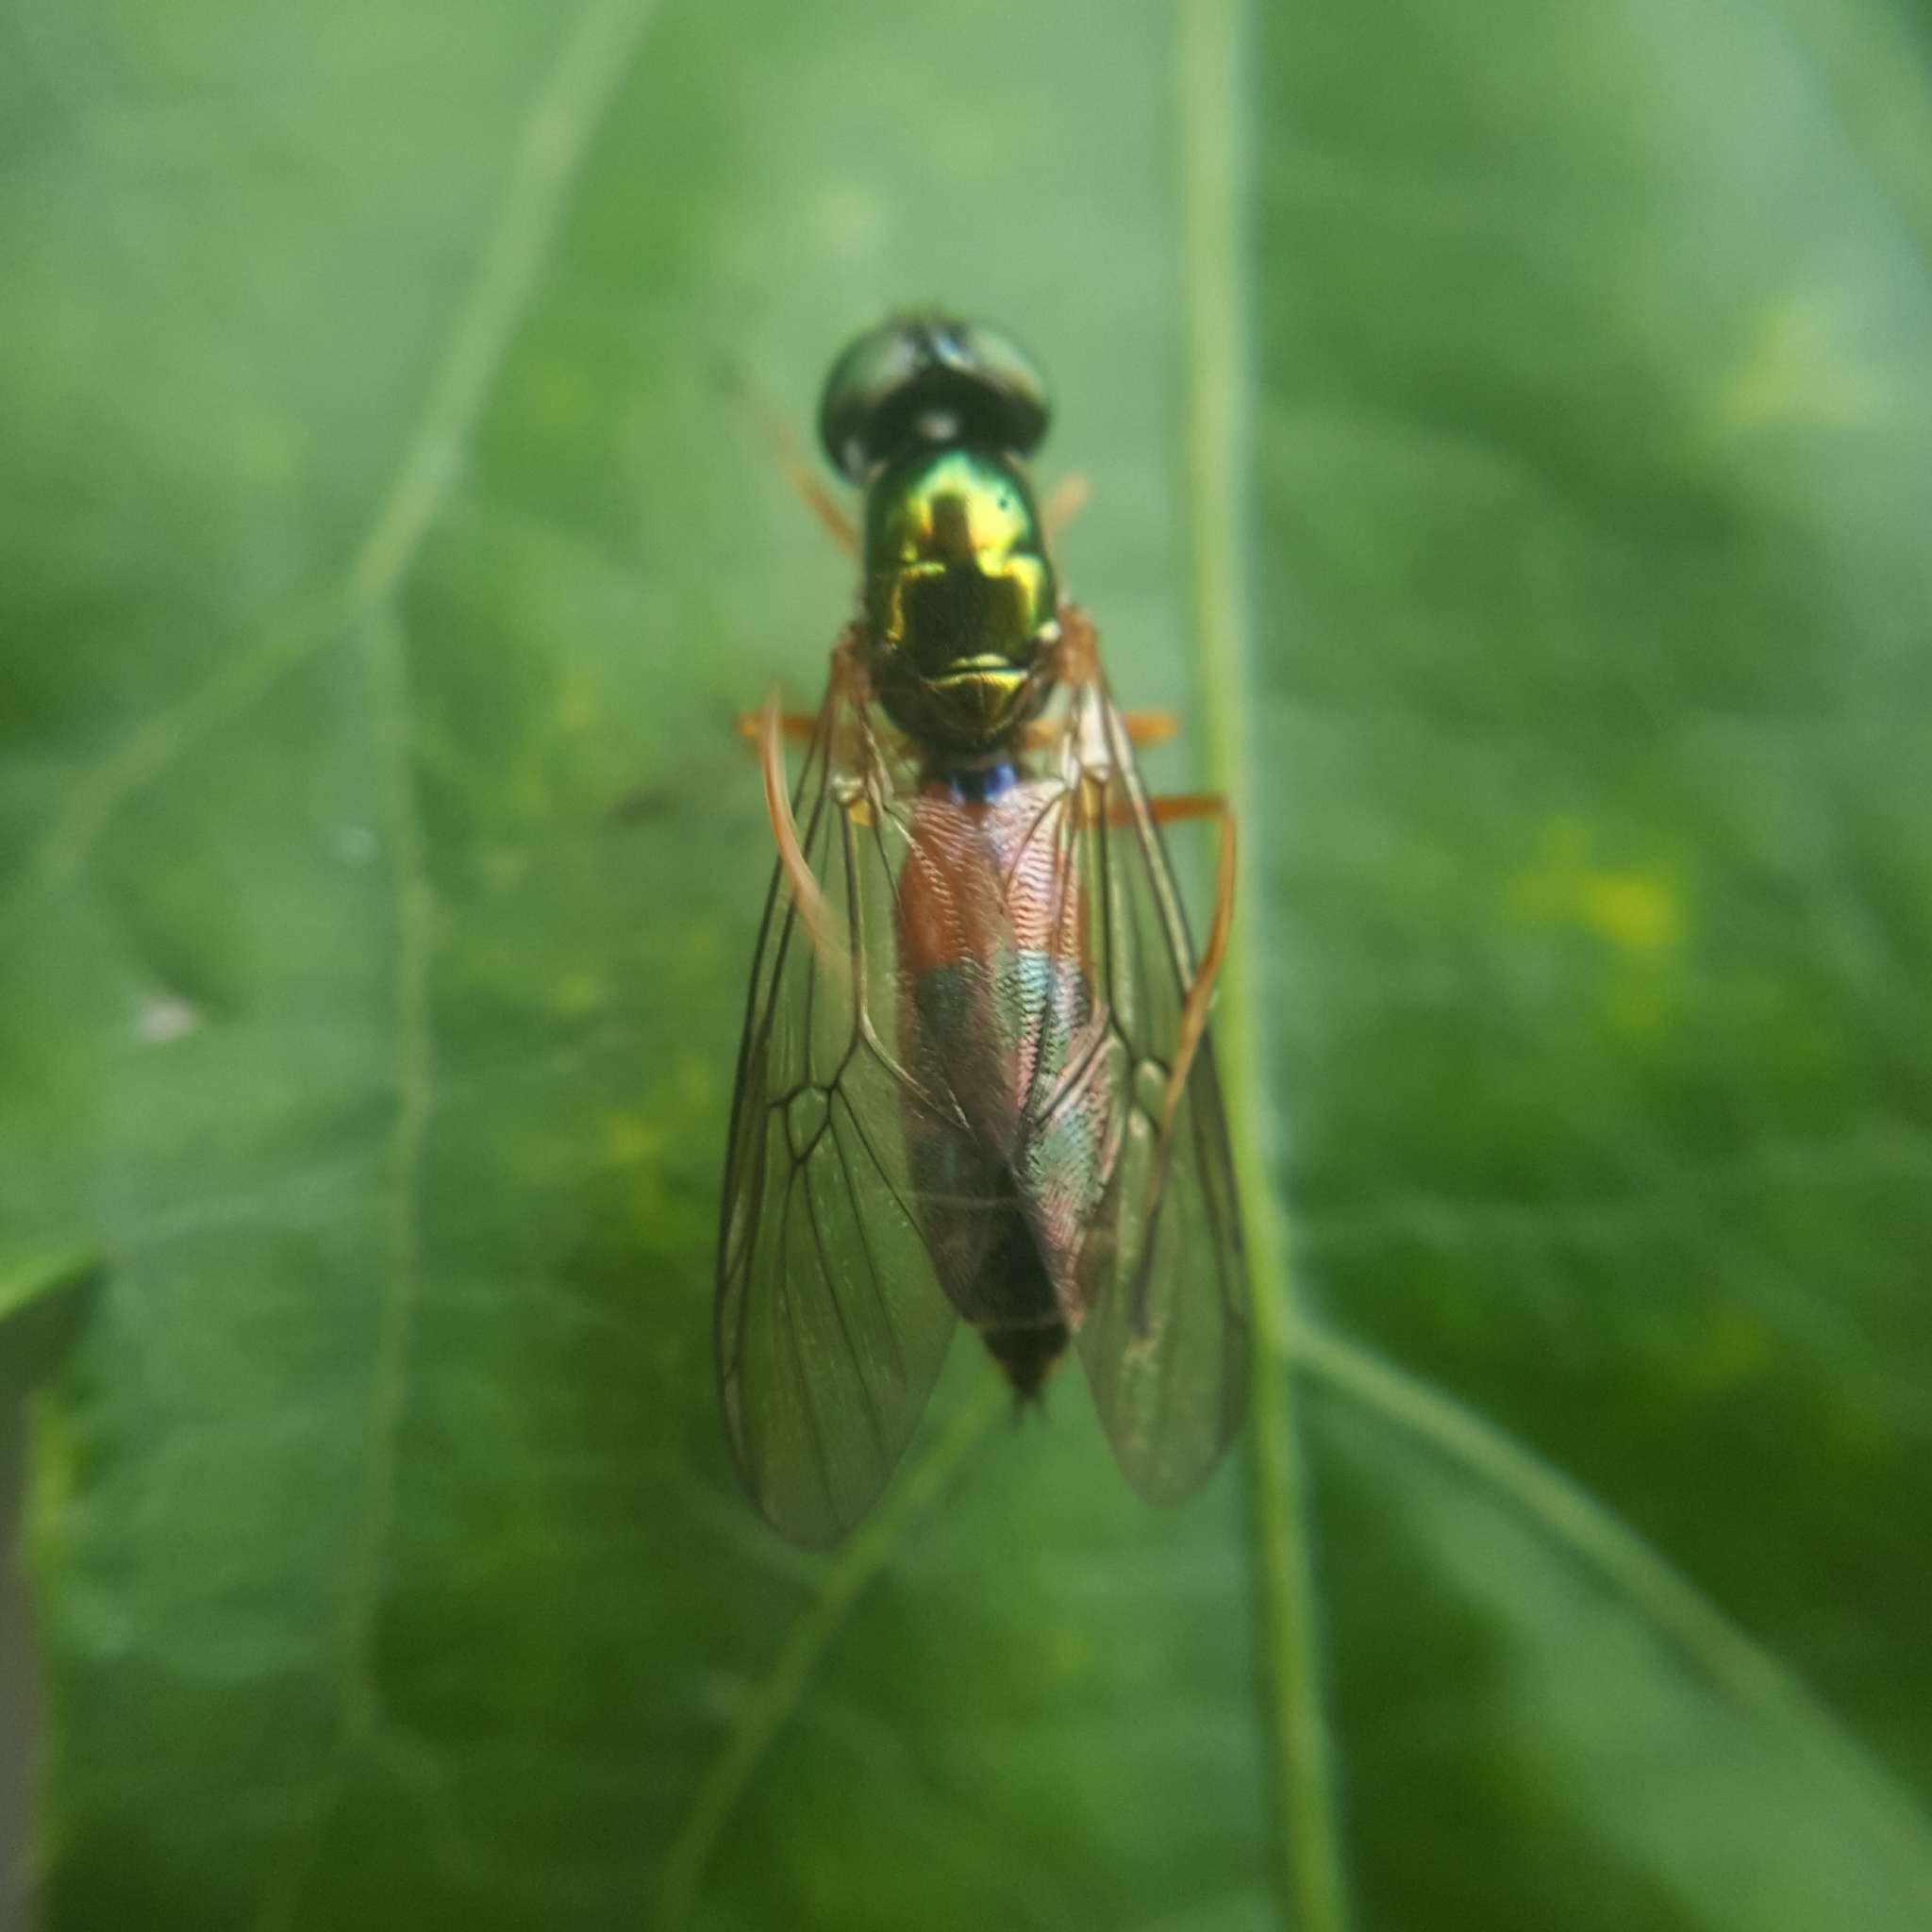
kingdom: Animalia
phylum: Arthropoda
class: Insecta
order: Diptera
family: Stratiomyidae
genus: Sargus
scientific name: Sargus bipunctatus
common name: Twin-spot centurion
